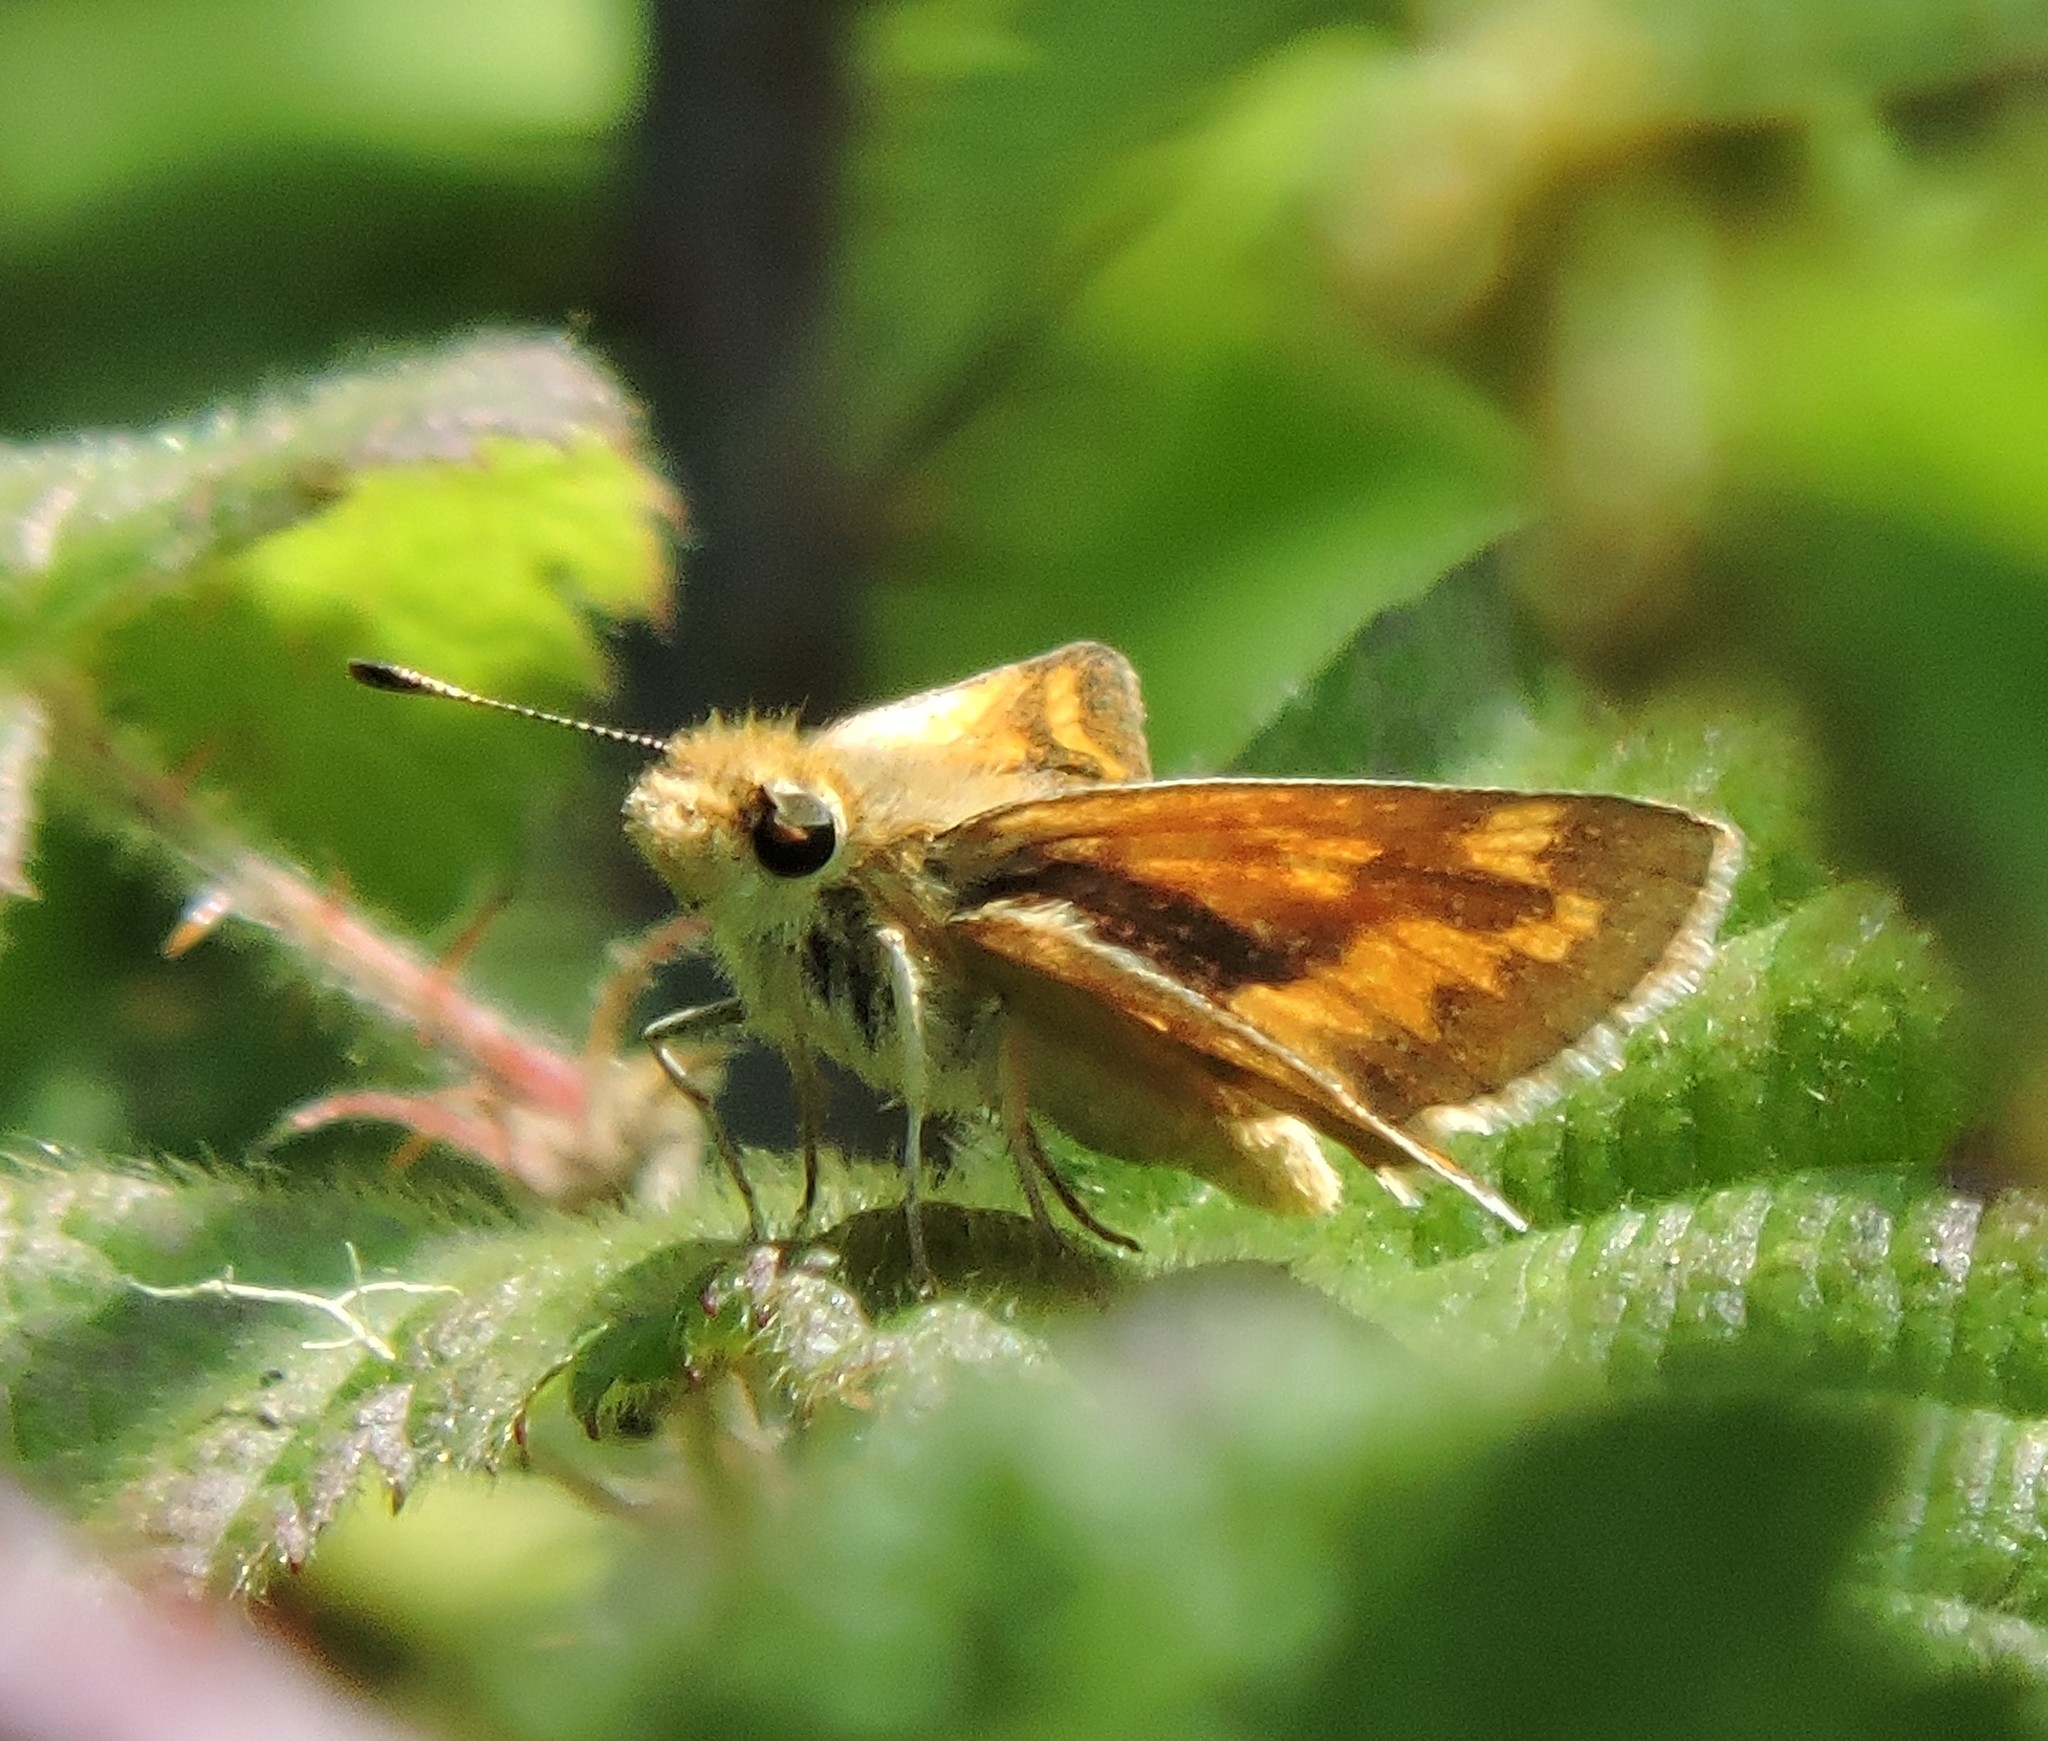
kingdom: Animalia
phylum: Arthropoda
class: Insecta
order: Lepidoptera
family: Hesperiidae
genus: Ochlodes
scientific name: Ochlodes sylvanoides
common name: Woodland skipper
